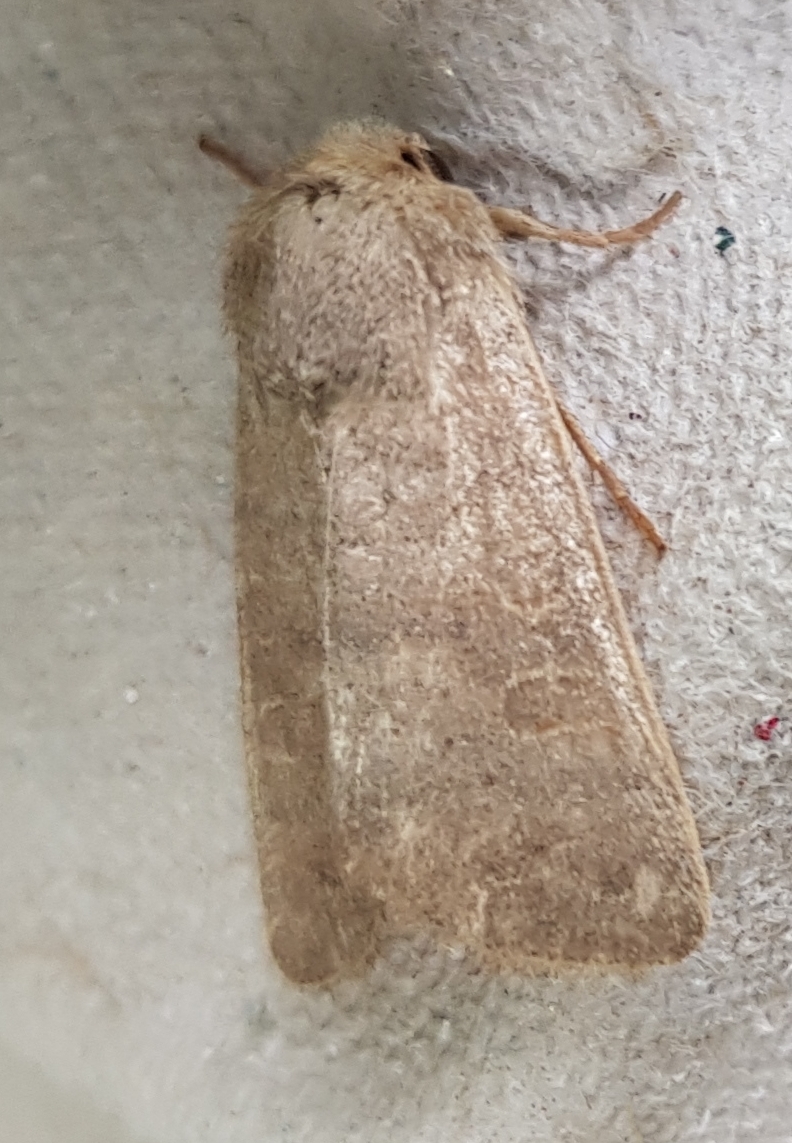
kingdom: Animalia
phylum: Arthropoda
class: Insecta
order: Lepidoptera
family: Noctuidae
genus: Hoplodrina
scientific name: Hoplodrina ambigua
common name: Vine's rustic
